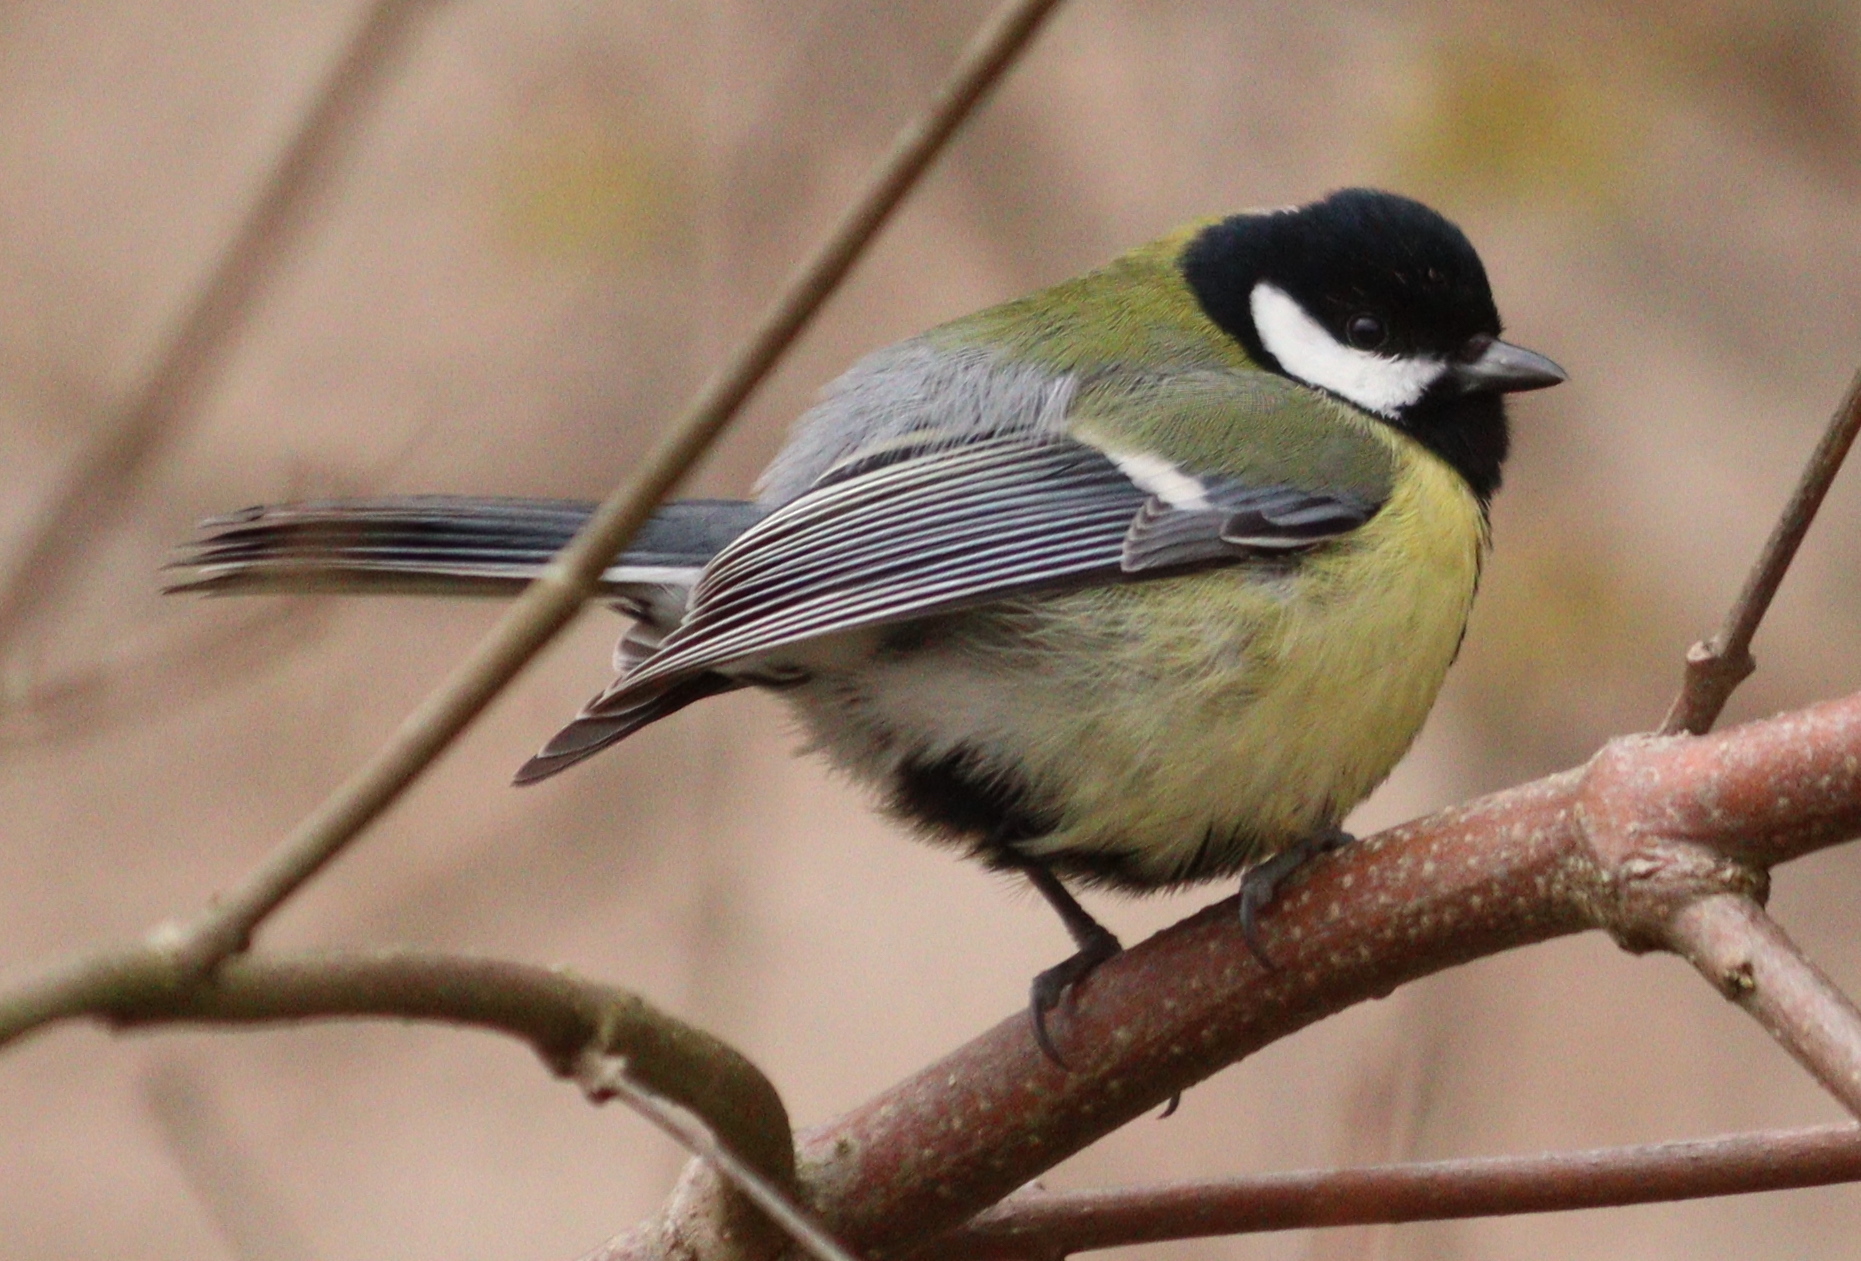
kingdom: Animalia
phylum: Chordata
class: Aves
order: Passeriformes
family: Paridae
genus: Parus
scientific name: Parus major
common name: Great tit
